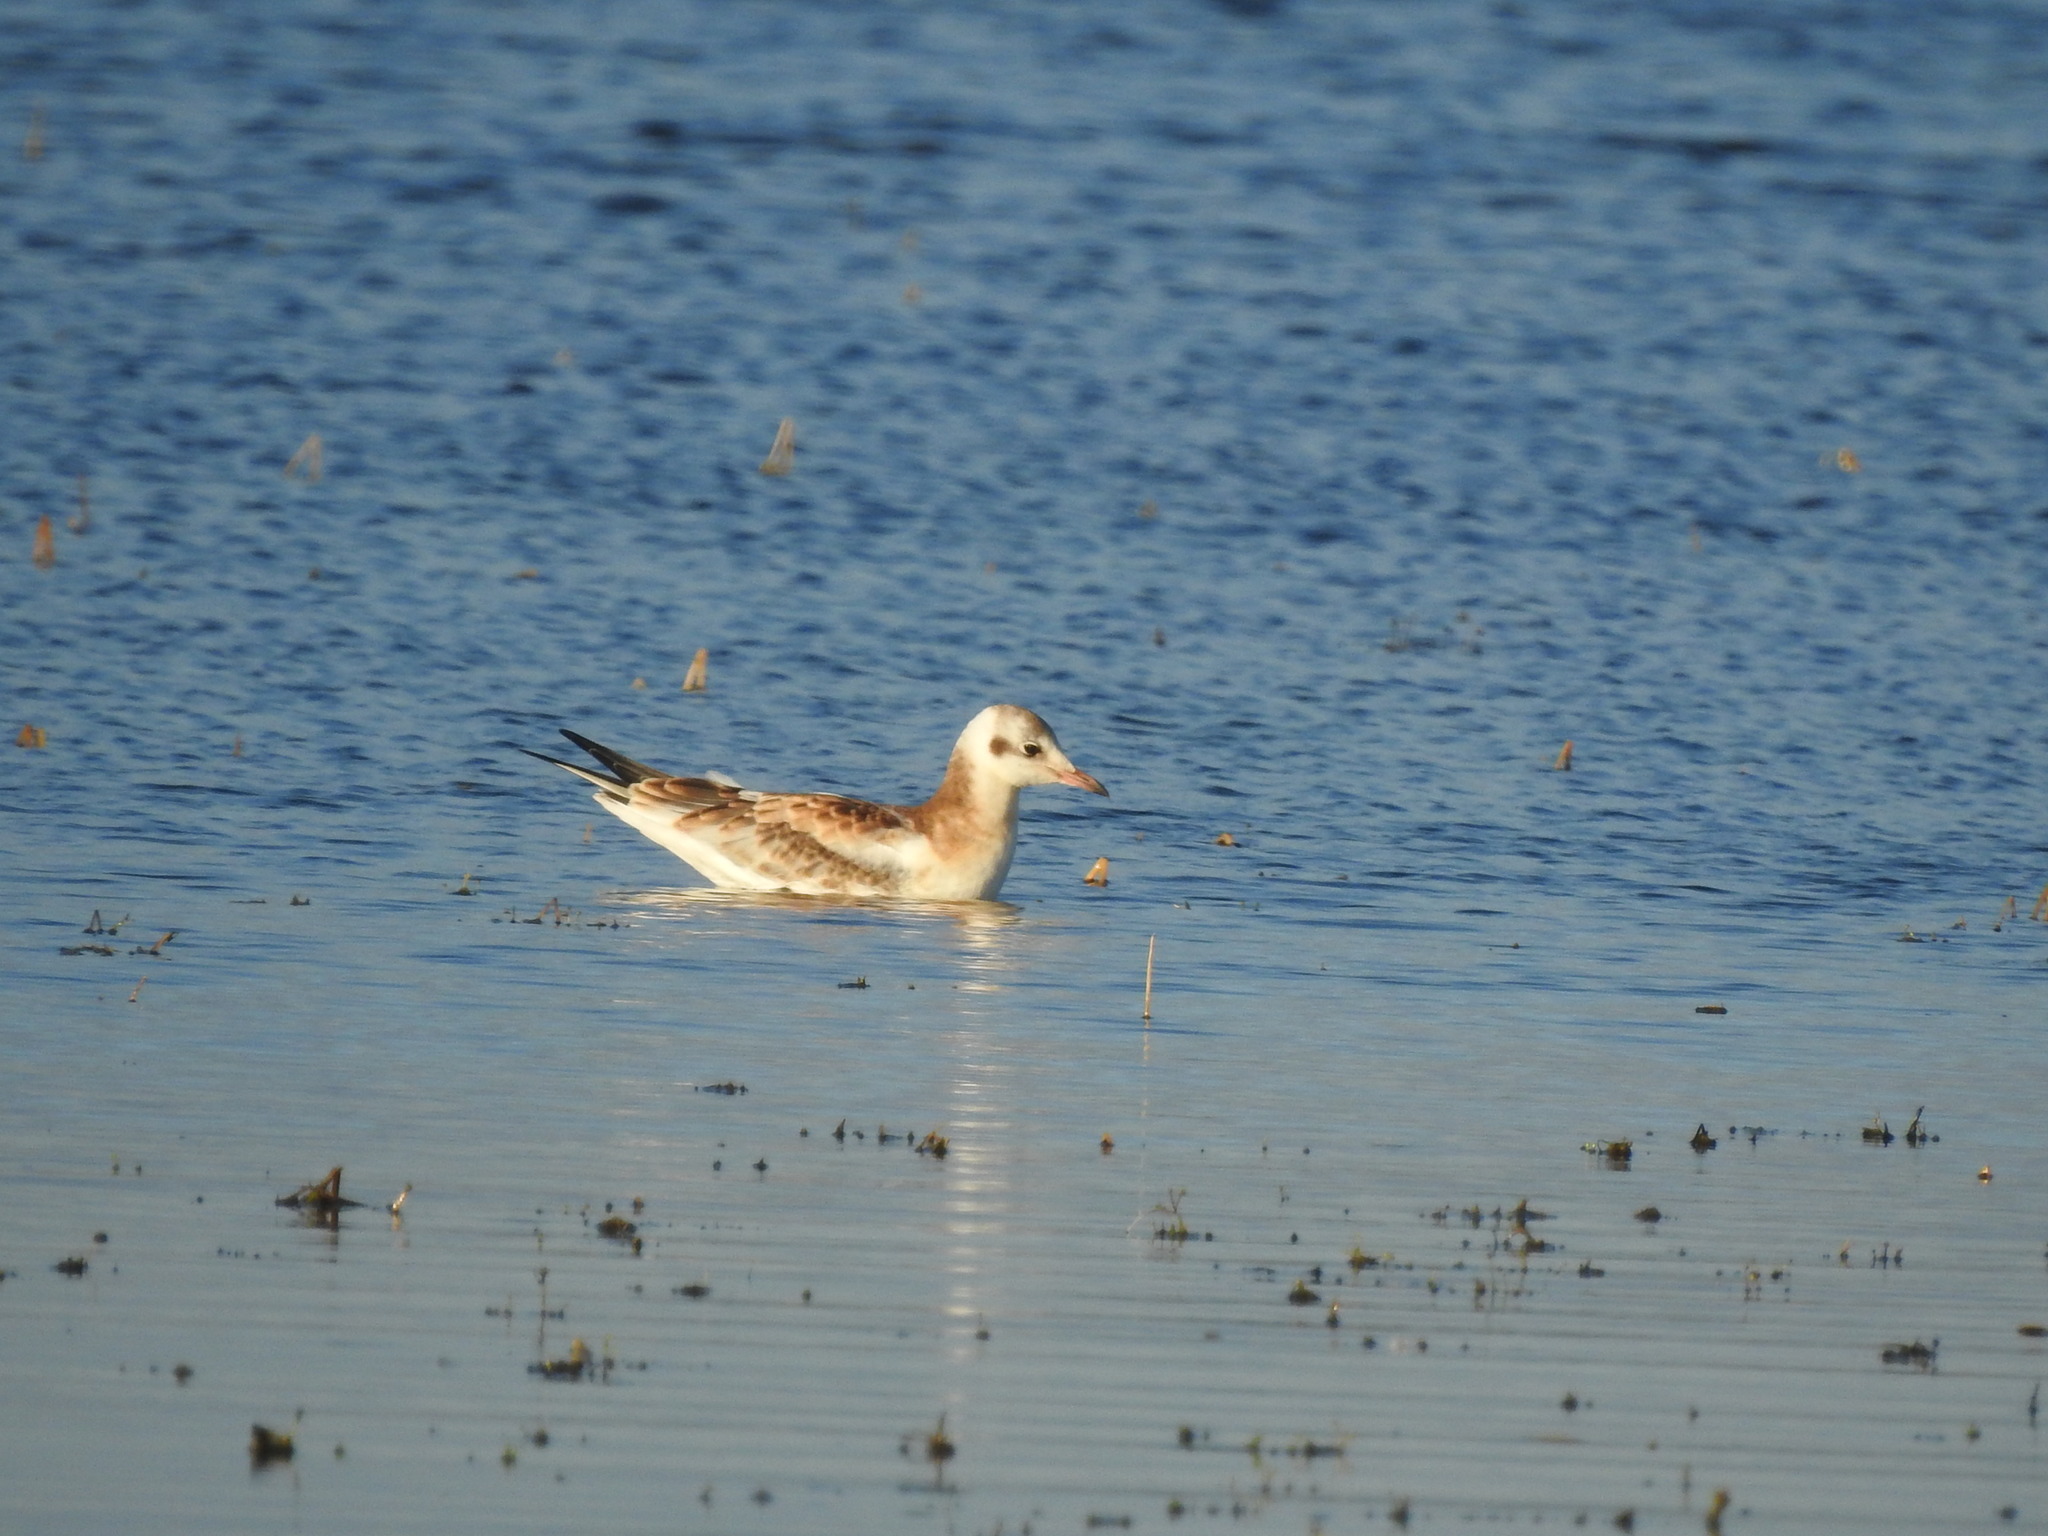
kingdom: Animalia
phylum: Chordata
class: Aves
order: Charadriiformes
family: Laridae
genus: Chroicocephalus
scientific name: Chroicocephalus ridibundus
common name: Black-headed gull
